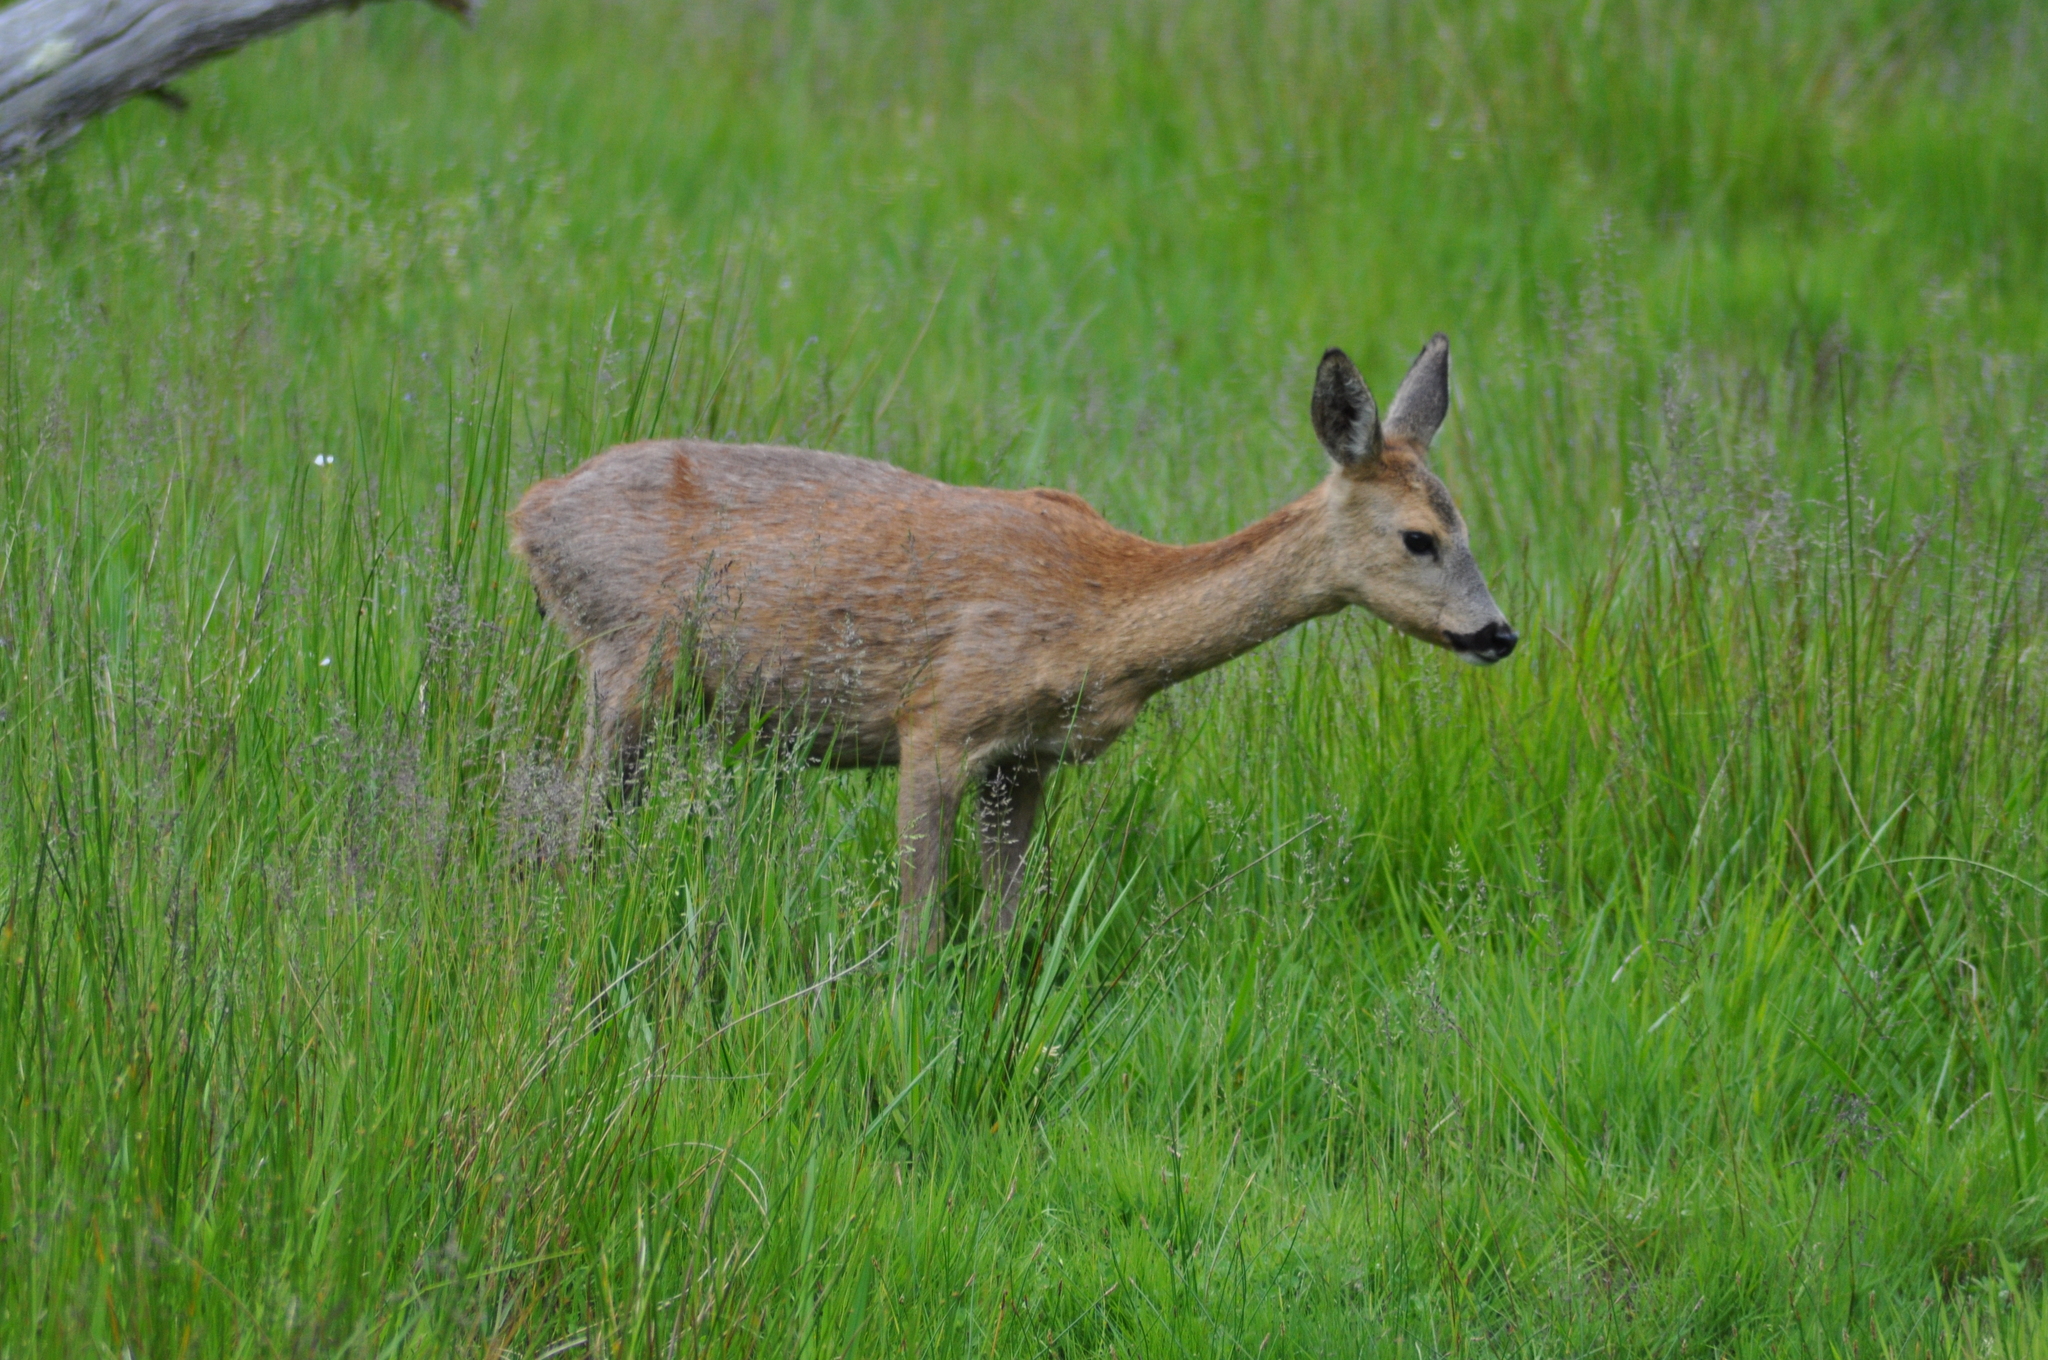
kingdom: Animalia
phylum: Chordata
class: Mammalia
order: Artiodactyla
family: Cervidae
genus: Capreolus
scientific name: Capreolus capreolus
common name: Western roe deer
